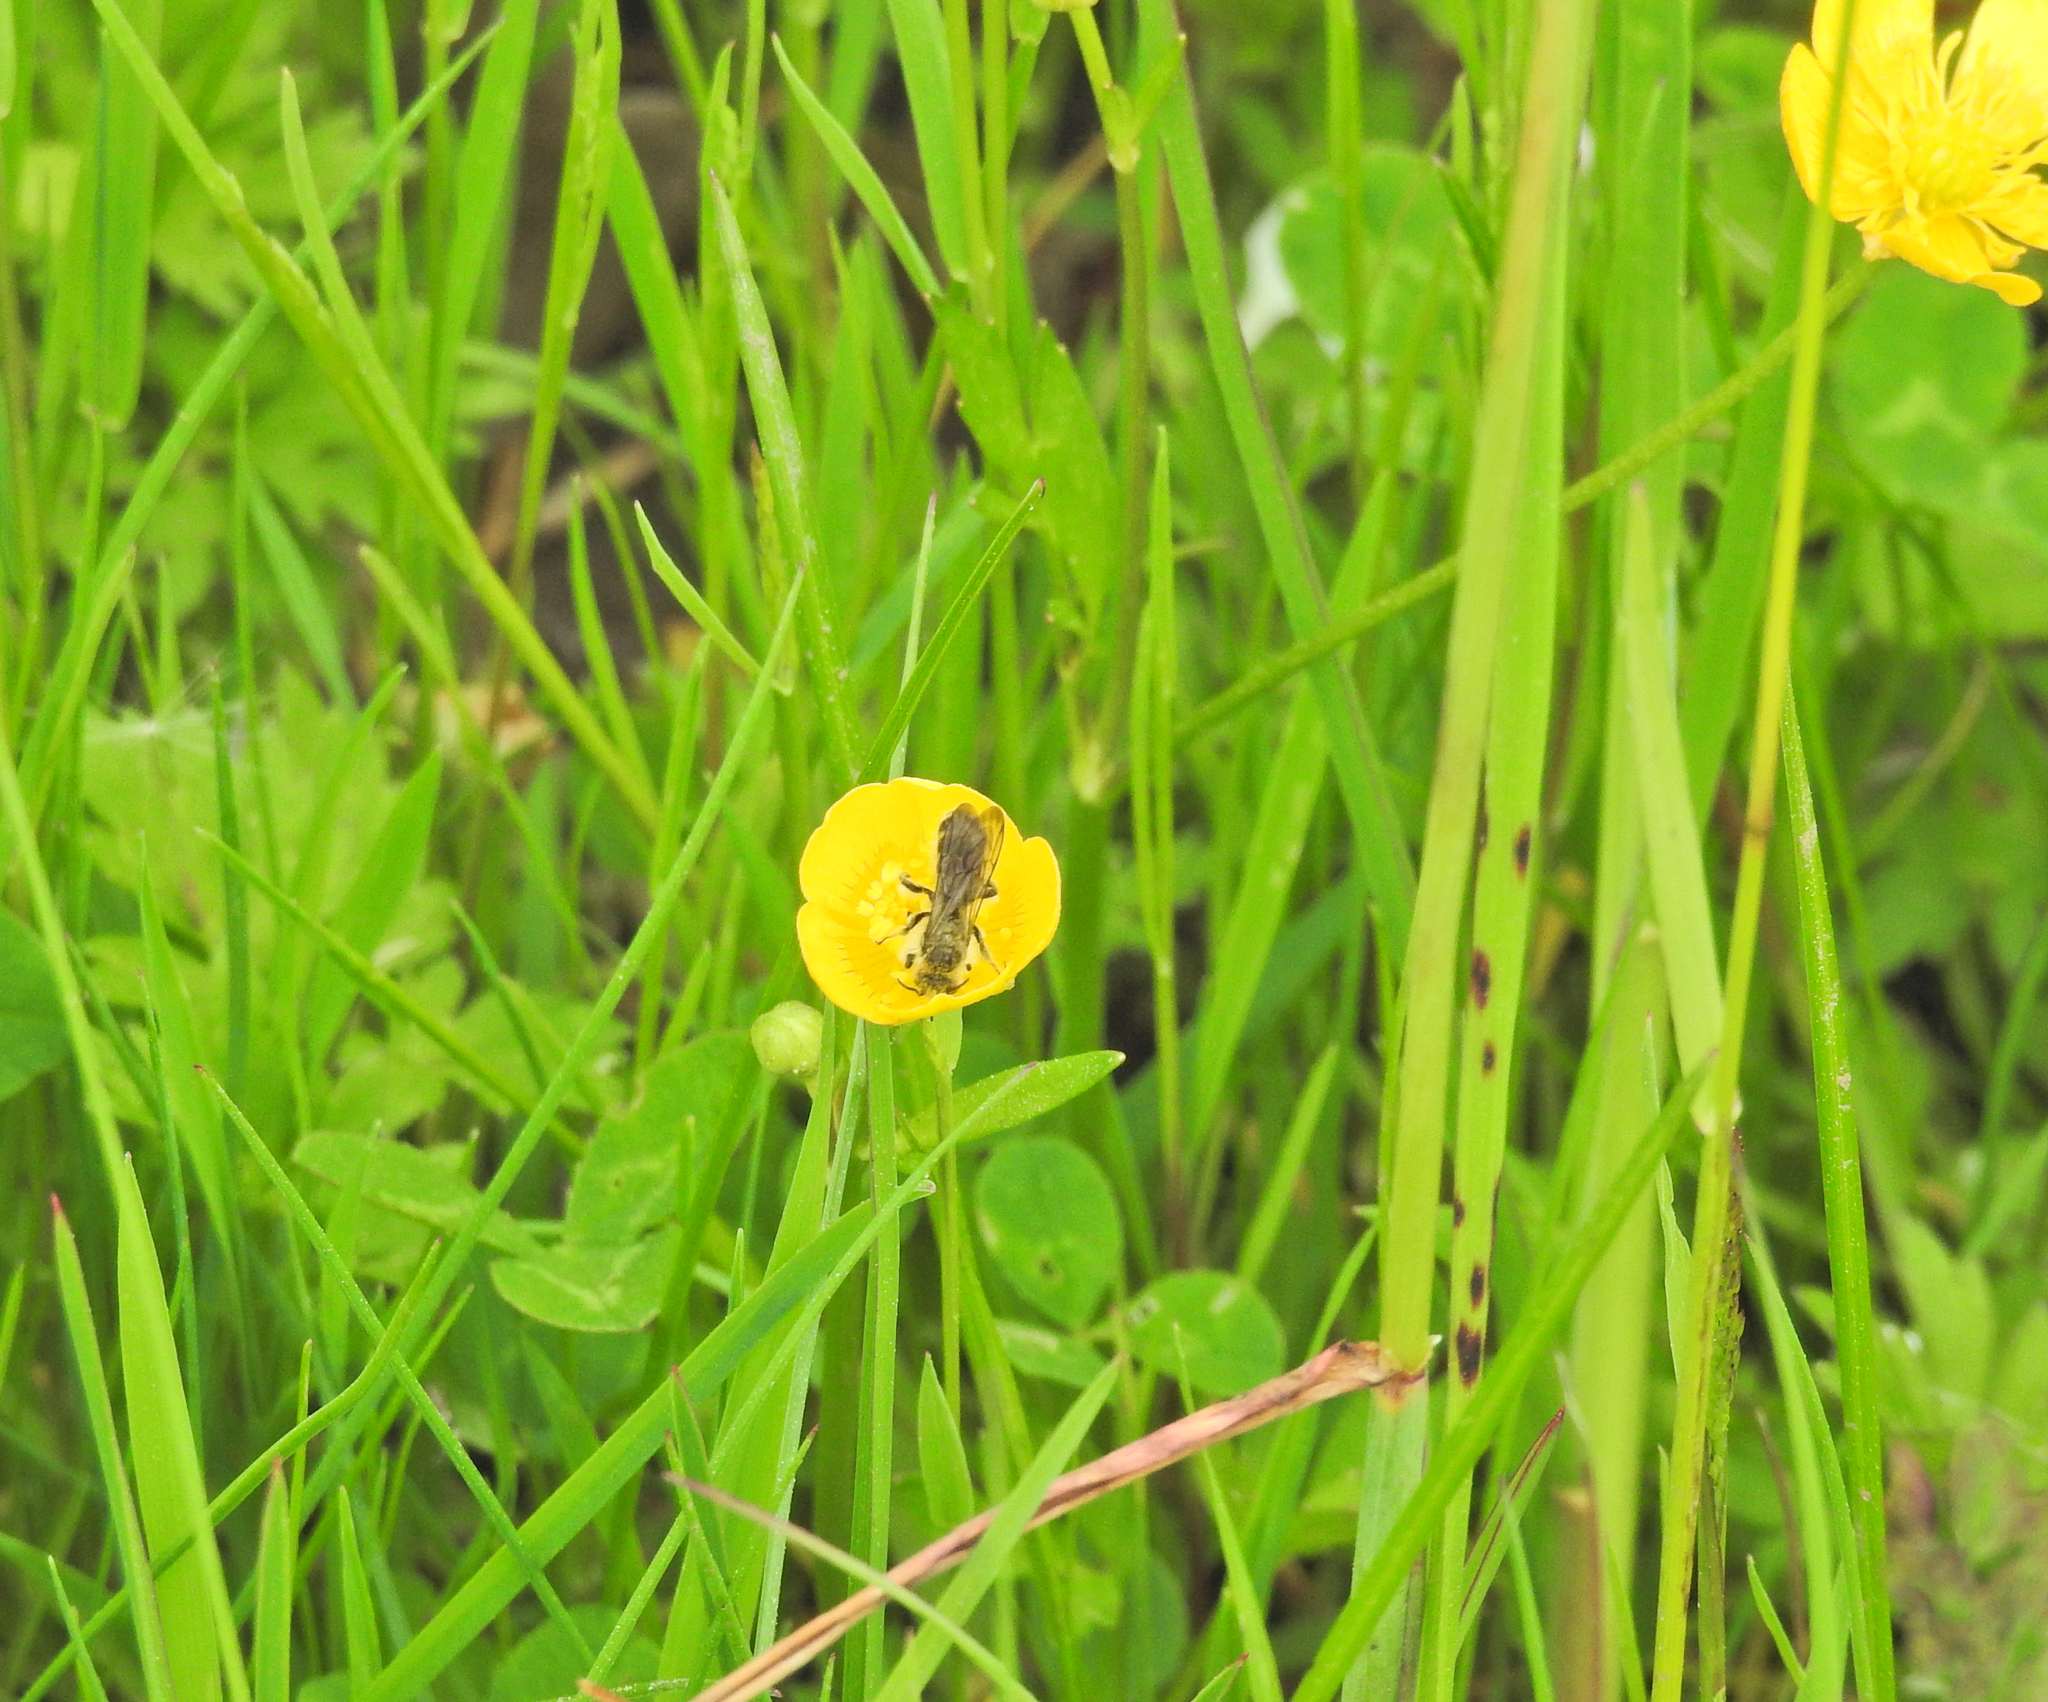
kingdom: Animalia
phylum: Arthropoda
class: Insecta
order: Hymenoptera
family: Megachilidae
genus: Chelostoma
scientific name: Chelostoma florisomne
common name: Sleepy carpenter bee
